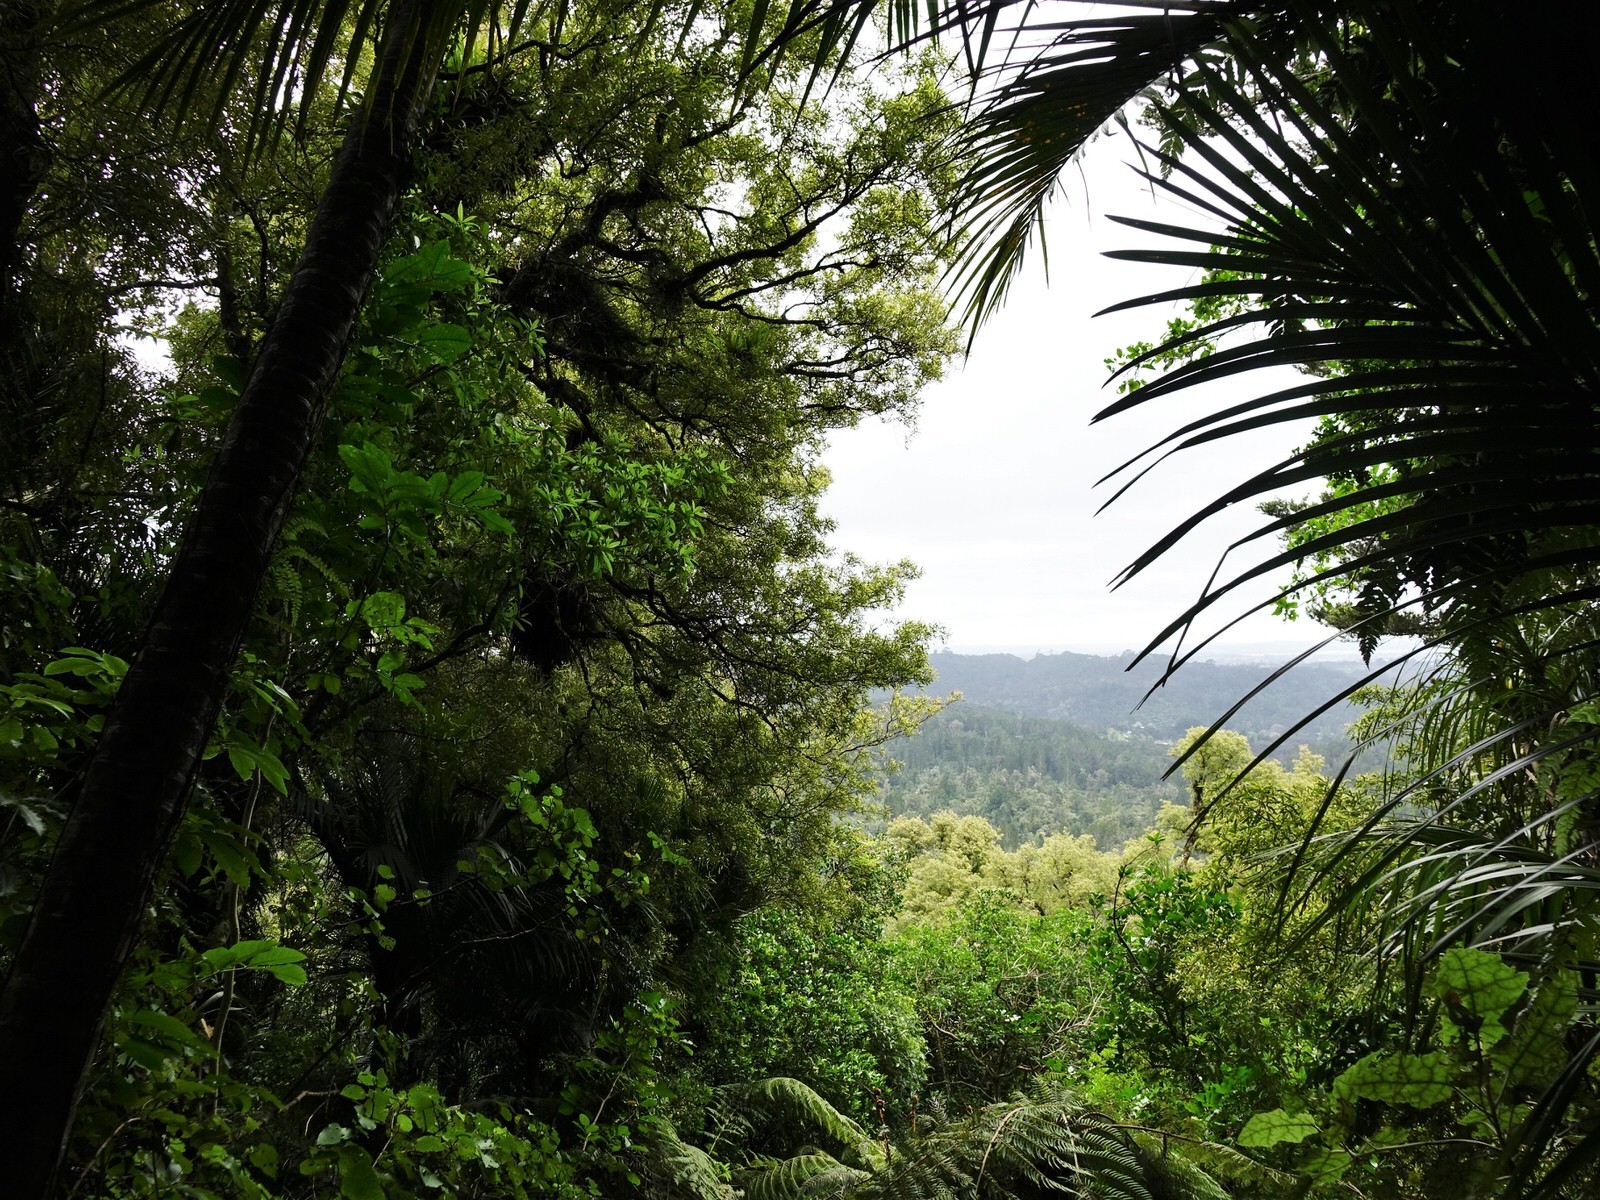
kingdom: Plantae
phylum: Tracheophyta
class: Magnoliopsida
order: Laurales
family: Lauraceae
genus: Beilschmiedia
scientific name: Beilschmiedia tawa
